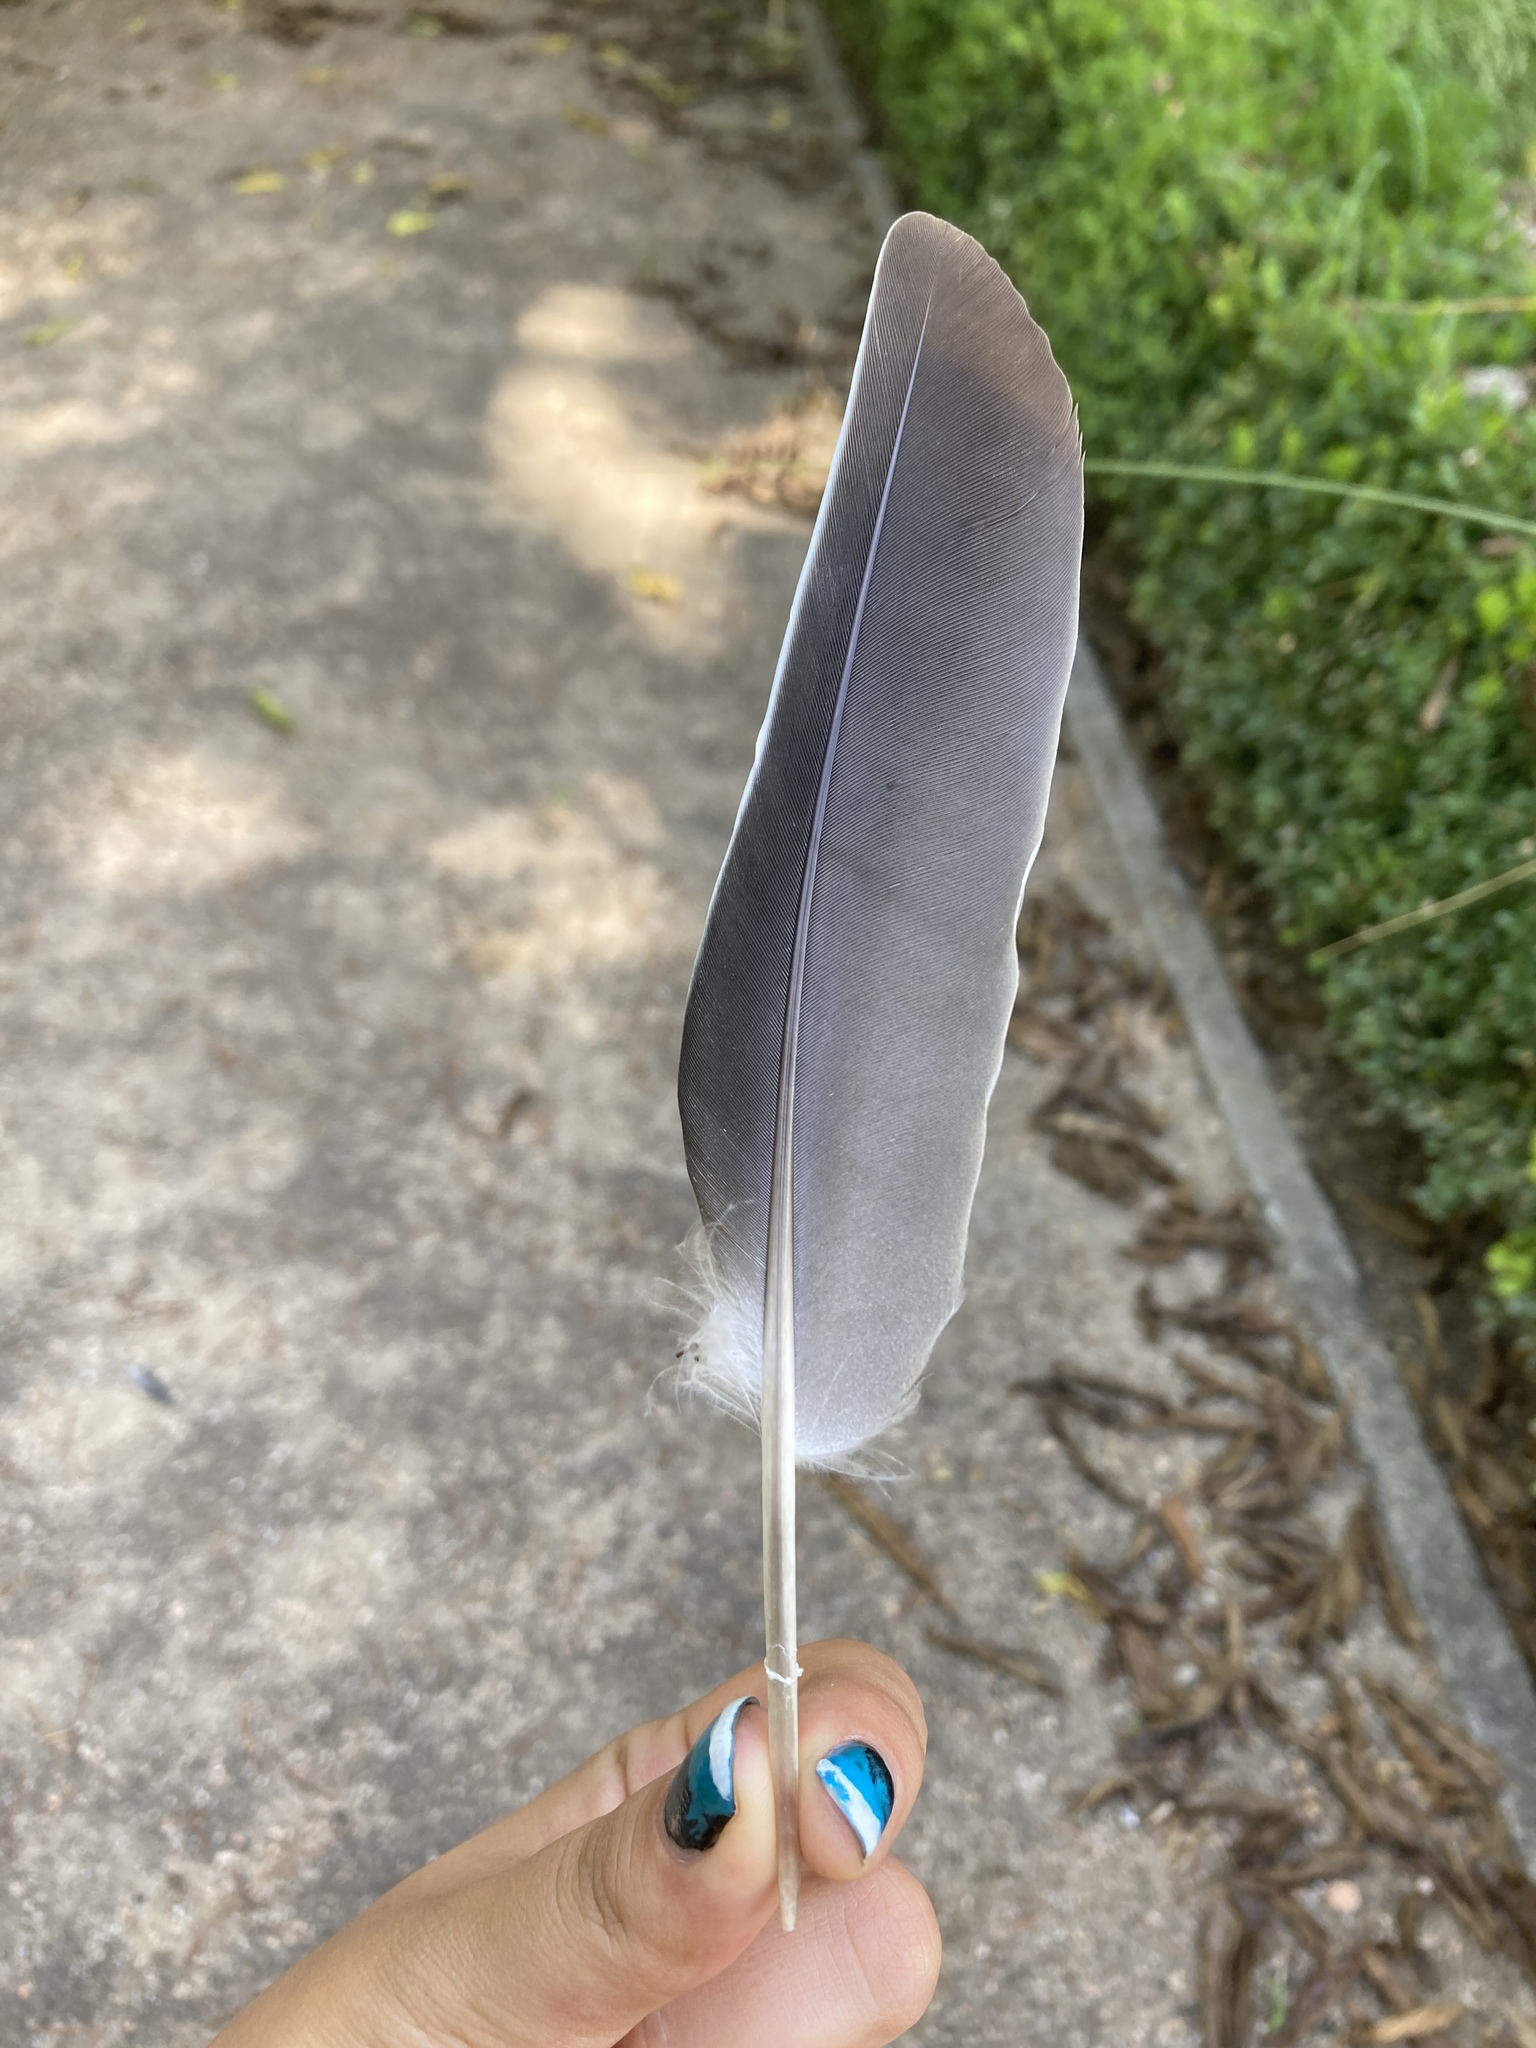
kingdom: Animalia
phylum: Chordata
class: Aves
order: Columbiformes
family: Columbidae
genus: Columba
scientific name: Columba palumbus
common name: Common wood pigeon
